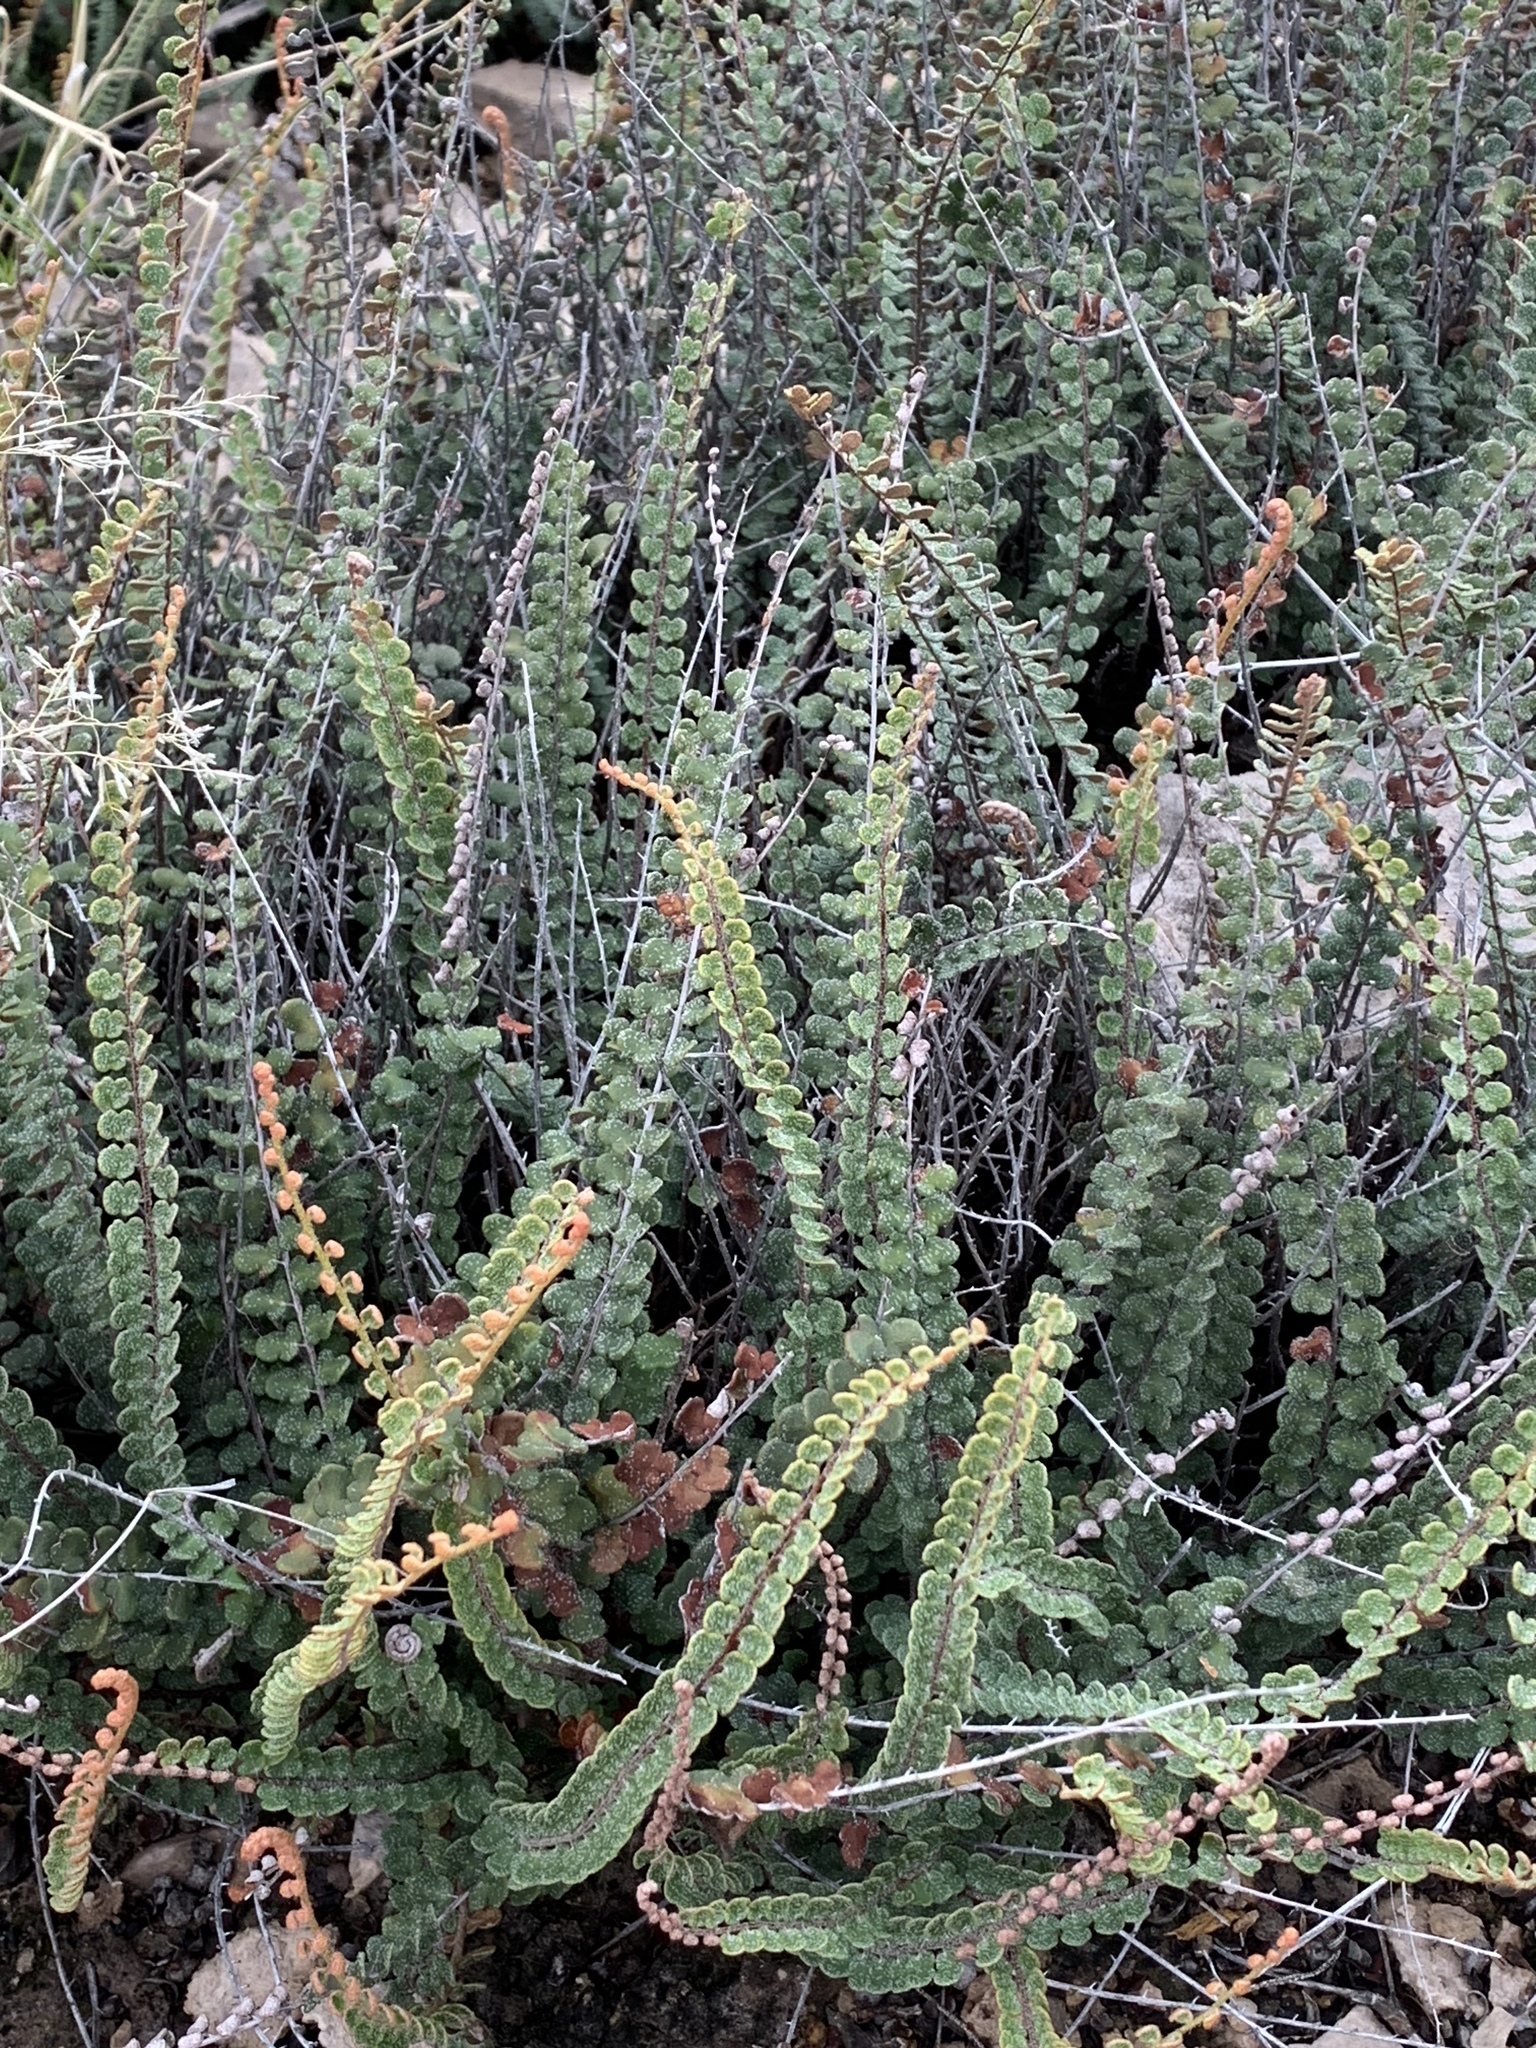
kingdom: Plantae
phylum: Tracheophyta
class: Polypodiopsida
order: Polypodiales
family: Pteridaceae
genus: Astrolepis
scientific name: Astrolepis cochisensis
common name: Scaly cloak fern
